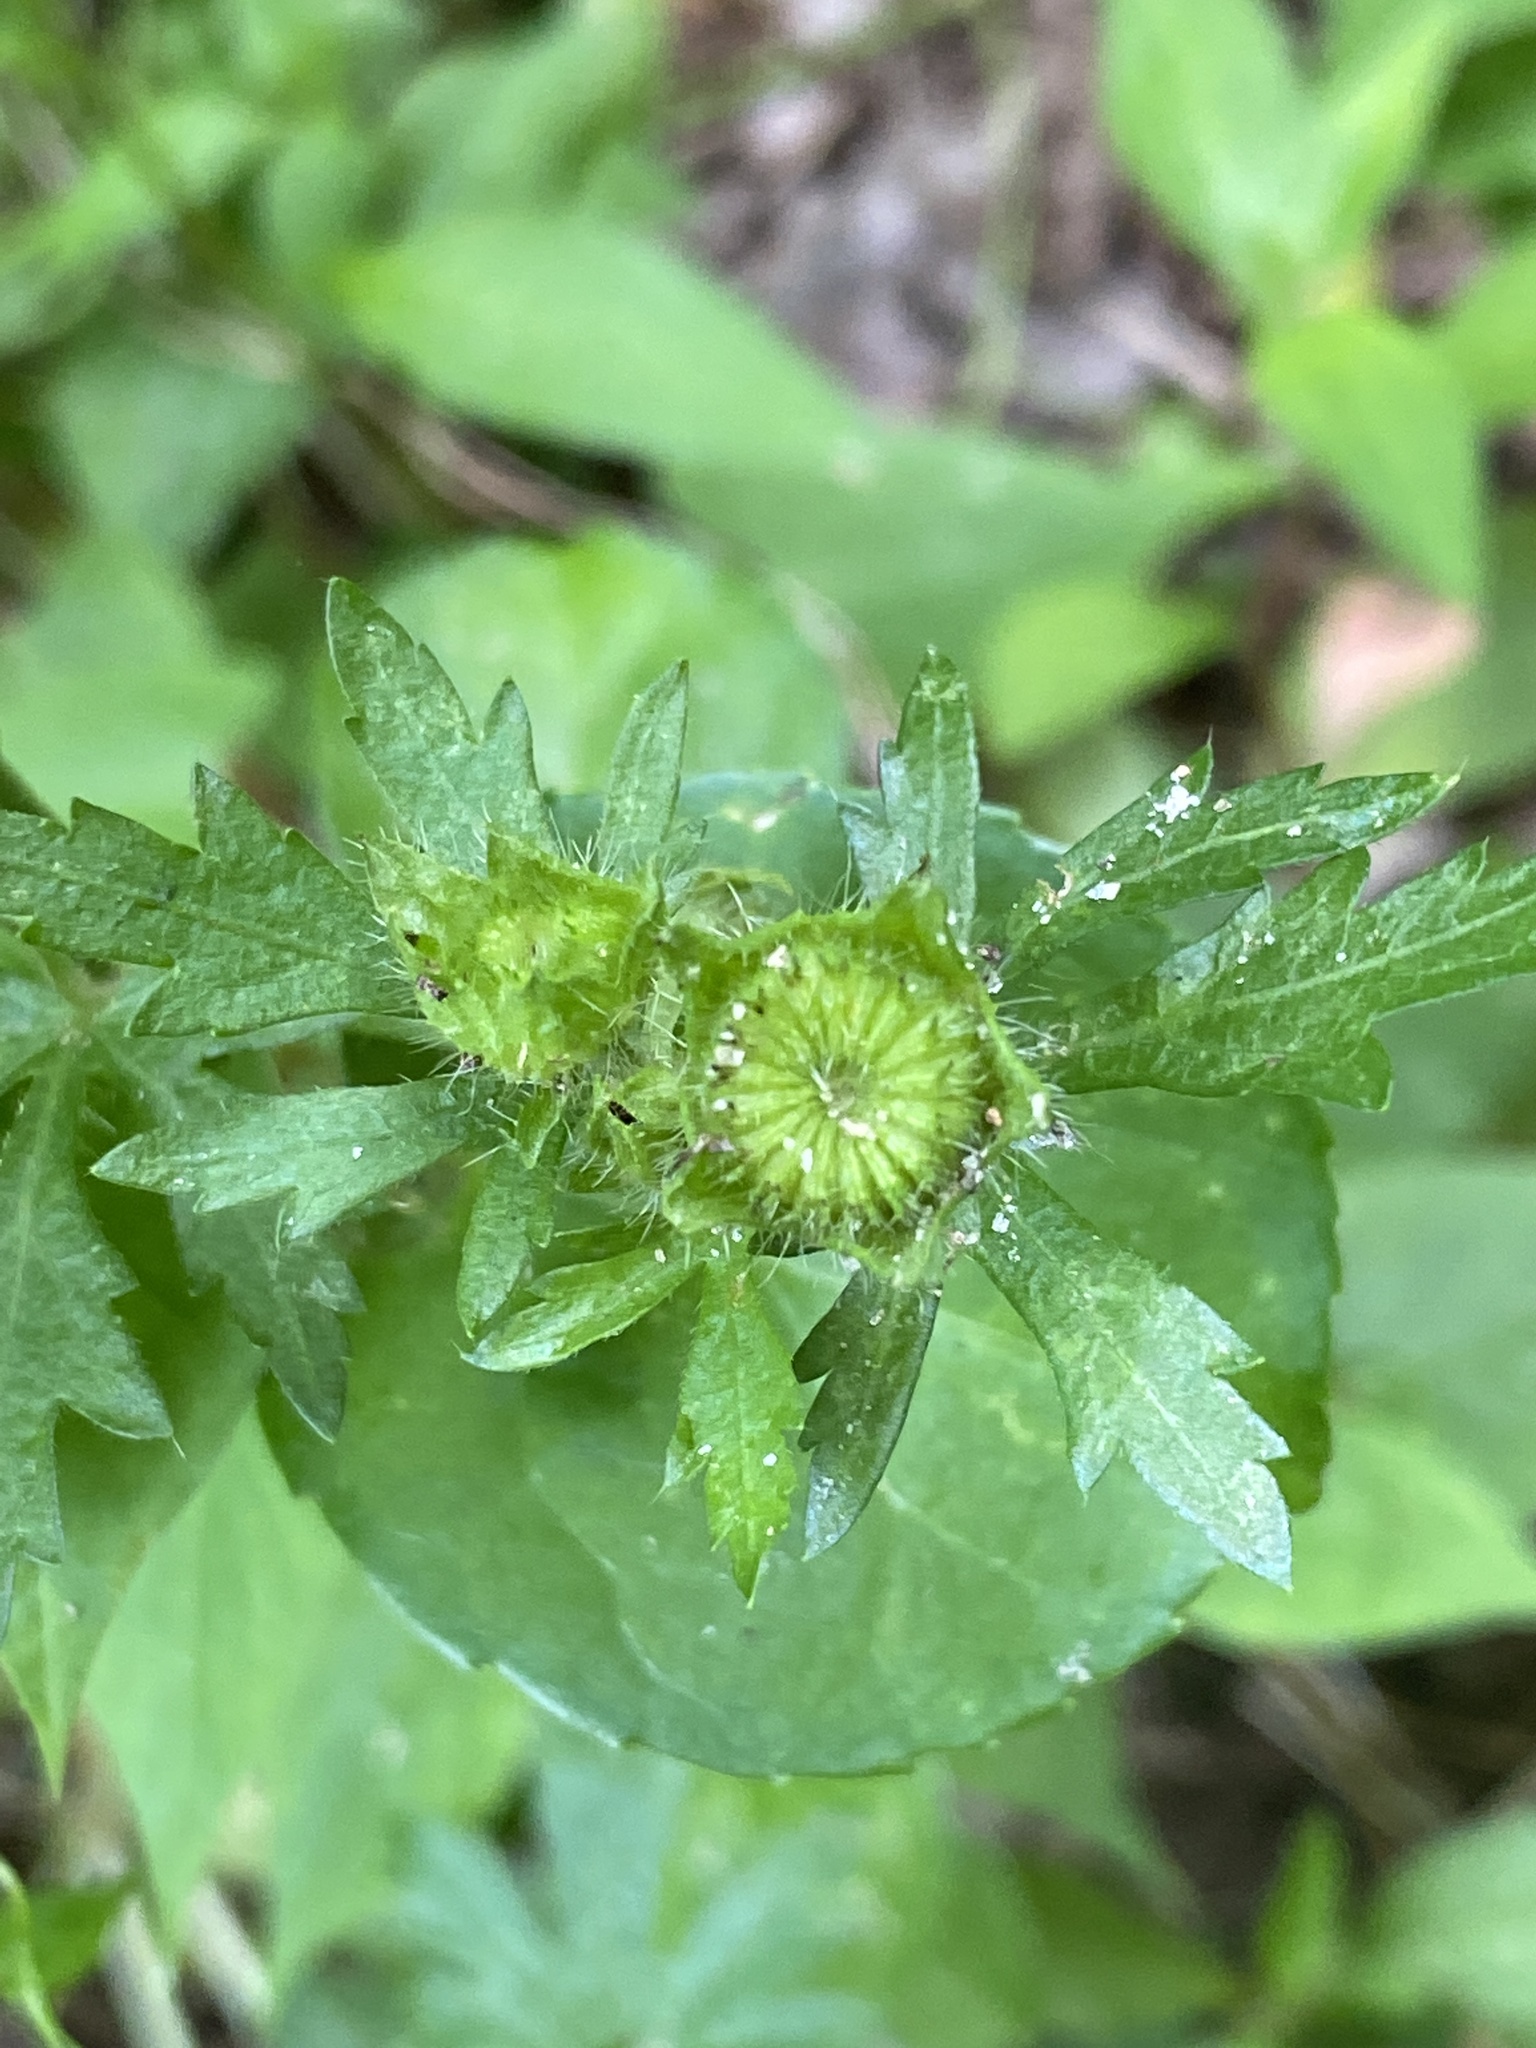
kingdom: Plantae
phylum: Tracheophyta
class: Magnoliopsida
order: Malvales
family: Malvaceae
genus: Modiola
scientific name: Modiola caroliniana
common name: Carolina bristlemallow
